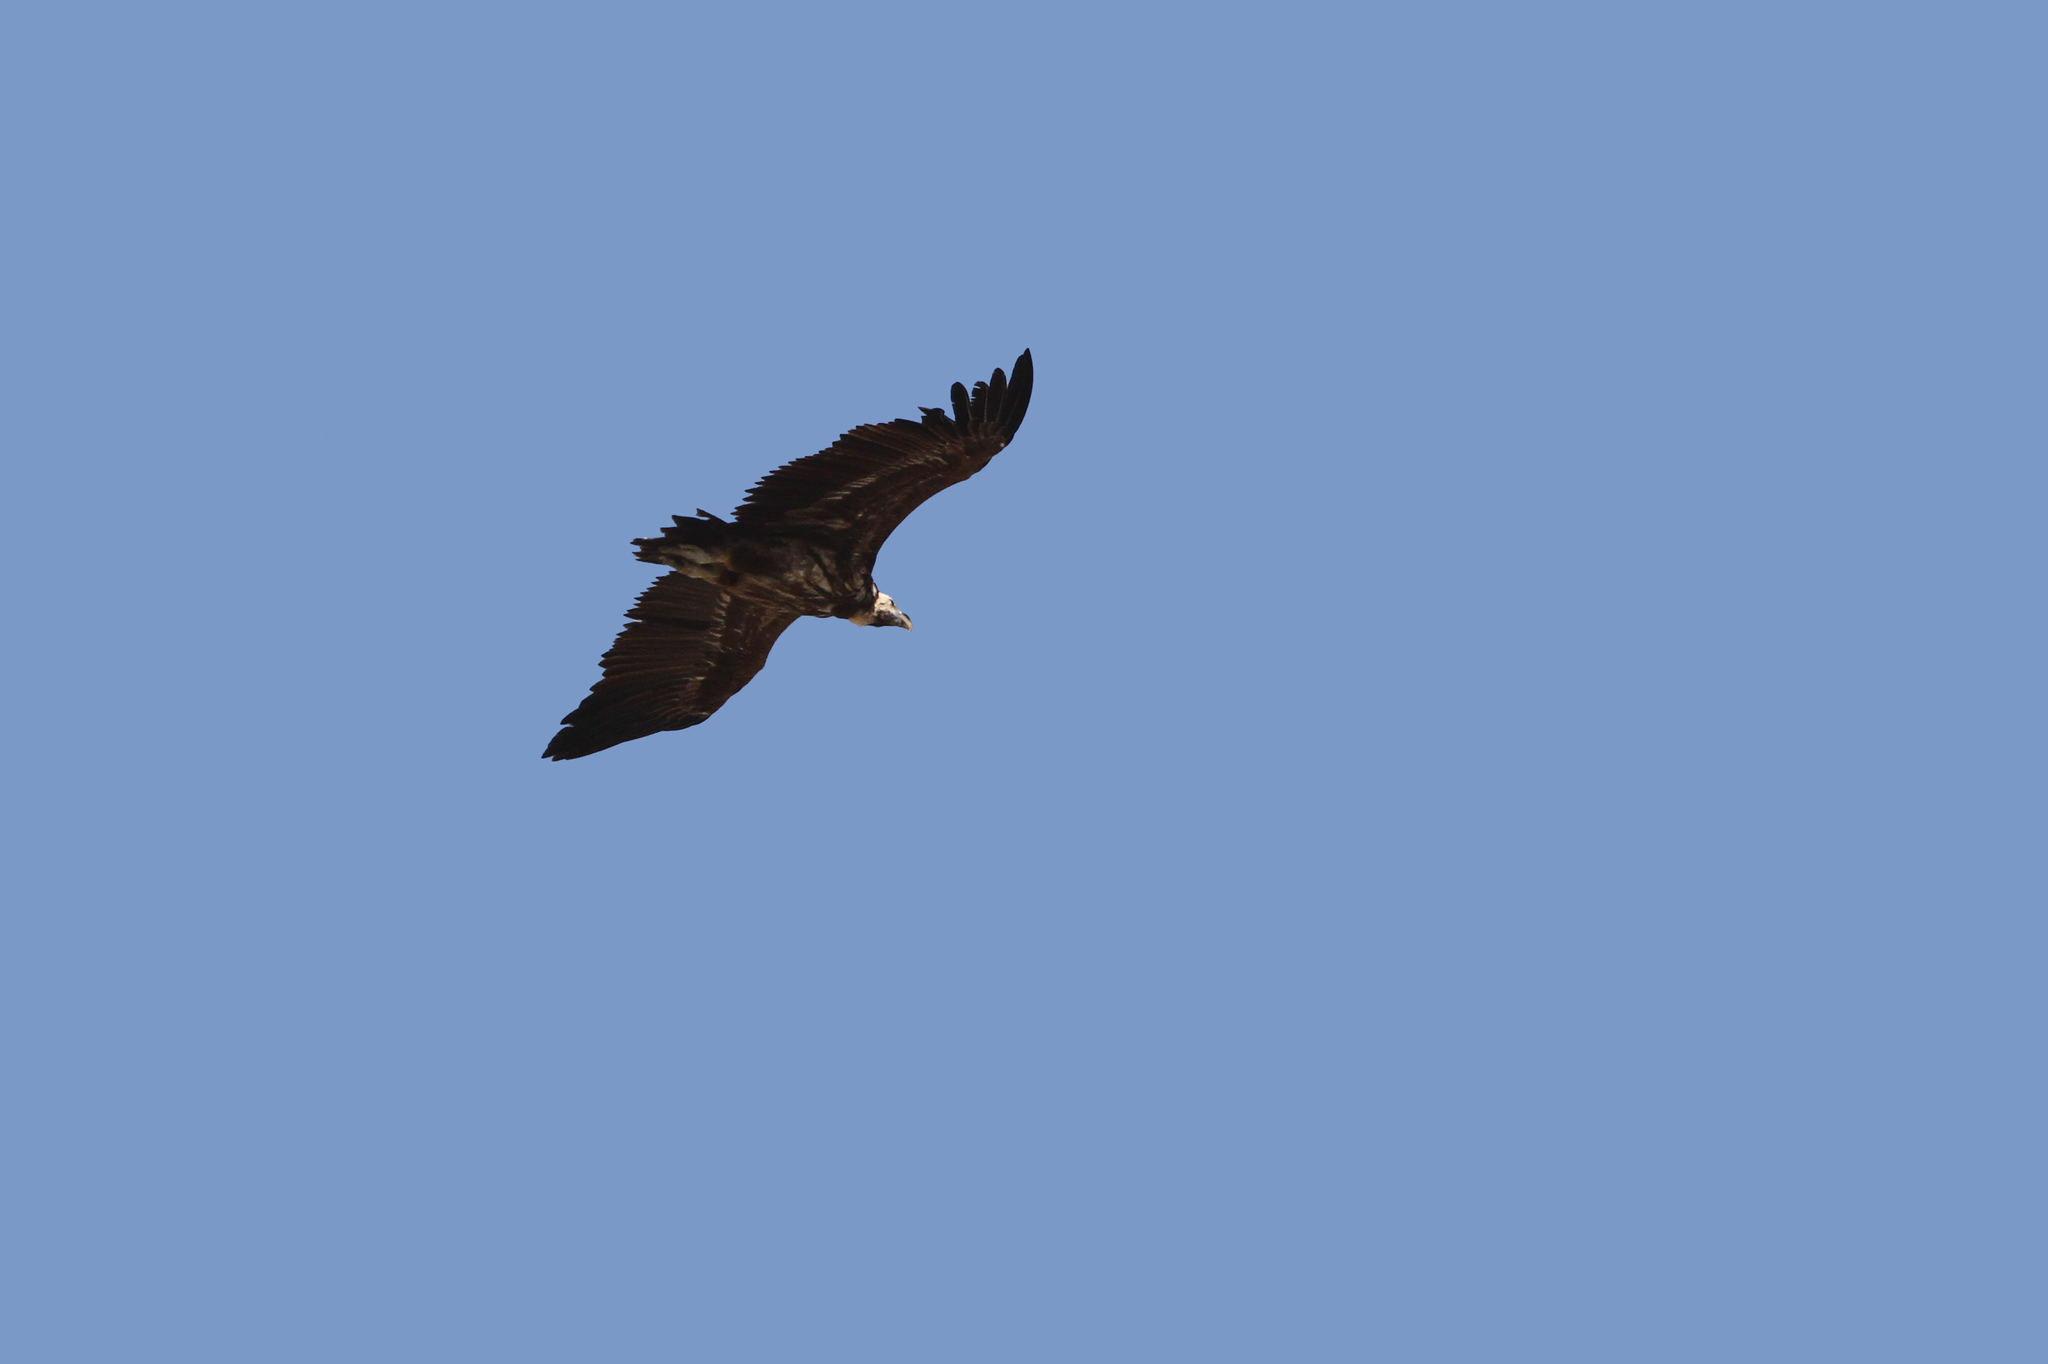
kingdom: Animalia
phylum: Chordata
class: Aves
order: Accipitriformes
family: Accipitridae
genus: Torgos
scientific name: Torgos tracheliotos
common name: Lappet-faced vulture
